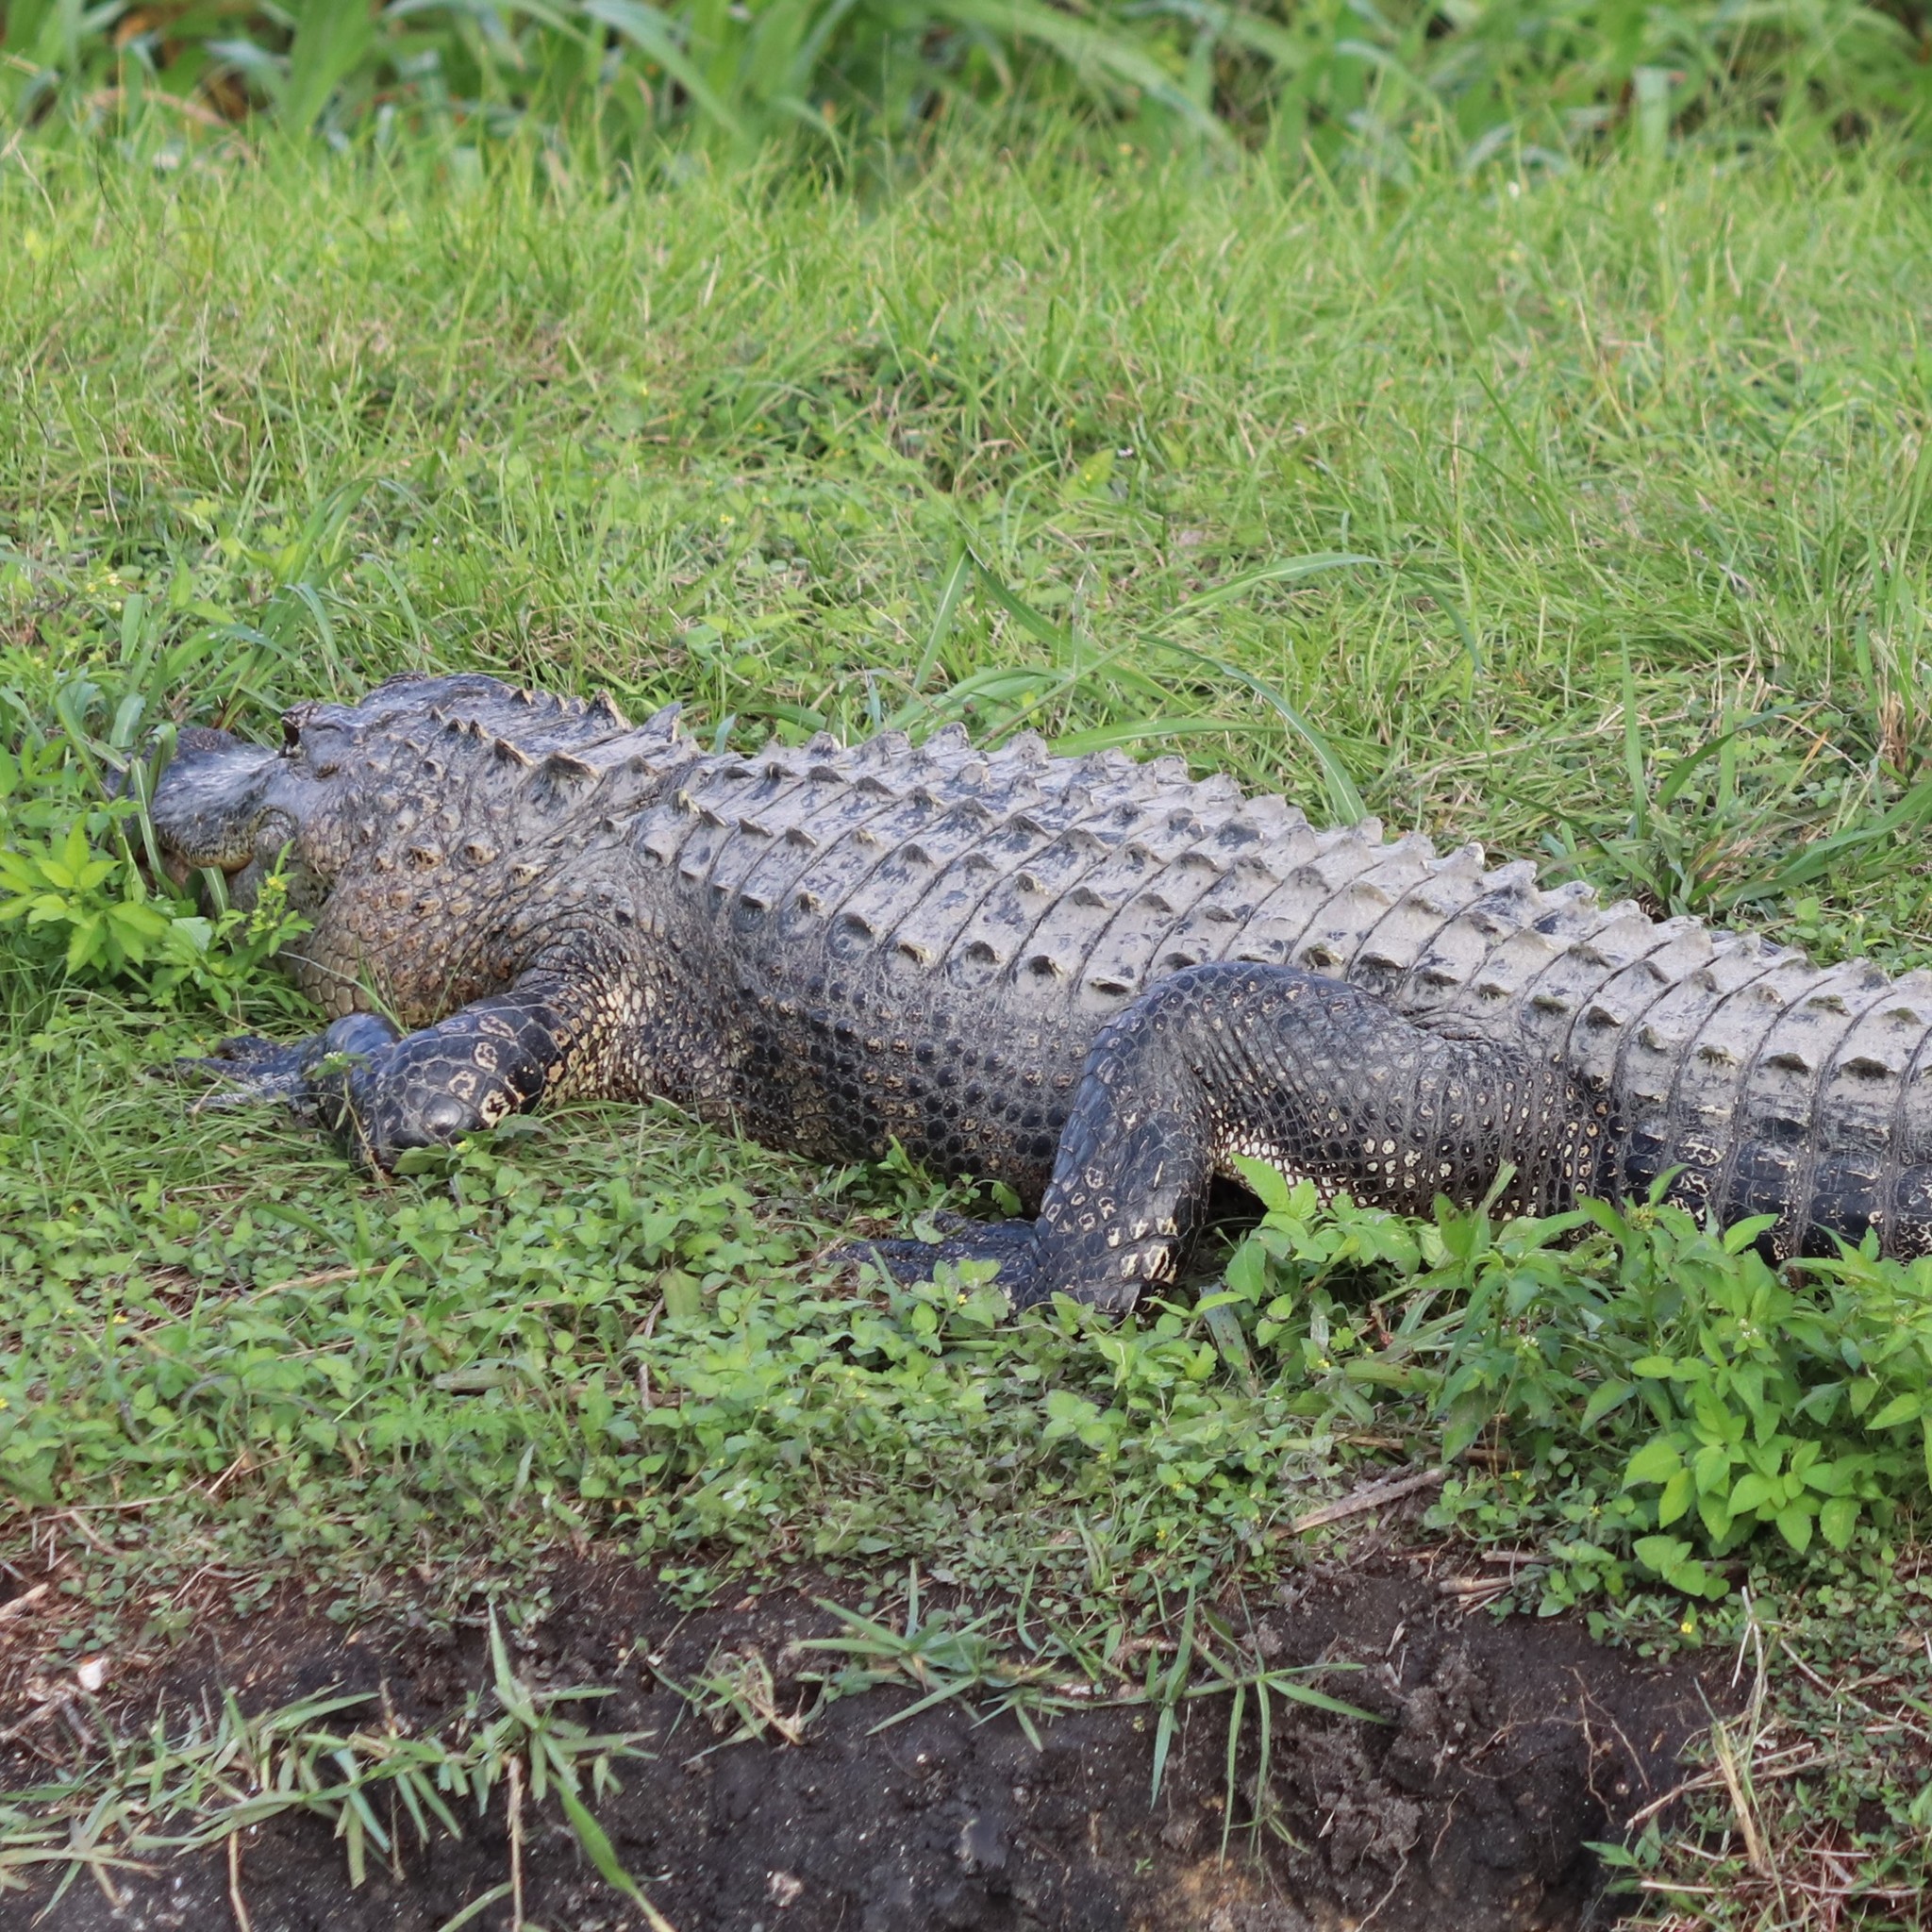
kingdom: Animalia
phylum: Chordata
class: Crocodylia
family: Alligatoridae
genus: Alligator
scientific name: Alligator mississippiensis
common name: American alligator
